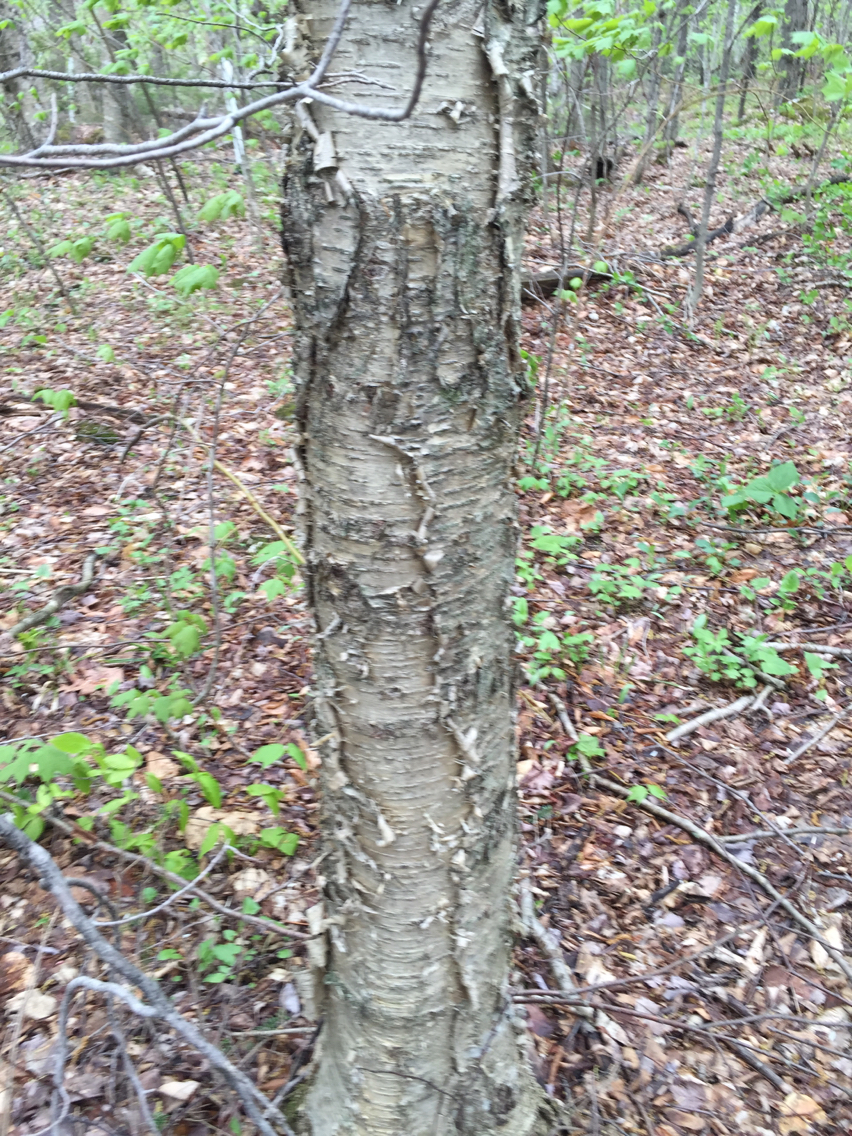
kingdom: Plantae
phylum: Tracheophyta
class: Magnoliopsida
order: Fagales
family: Betulaceae
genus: Betula
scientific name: Betula alleghaniensis
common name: Yellow birch
